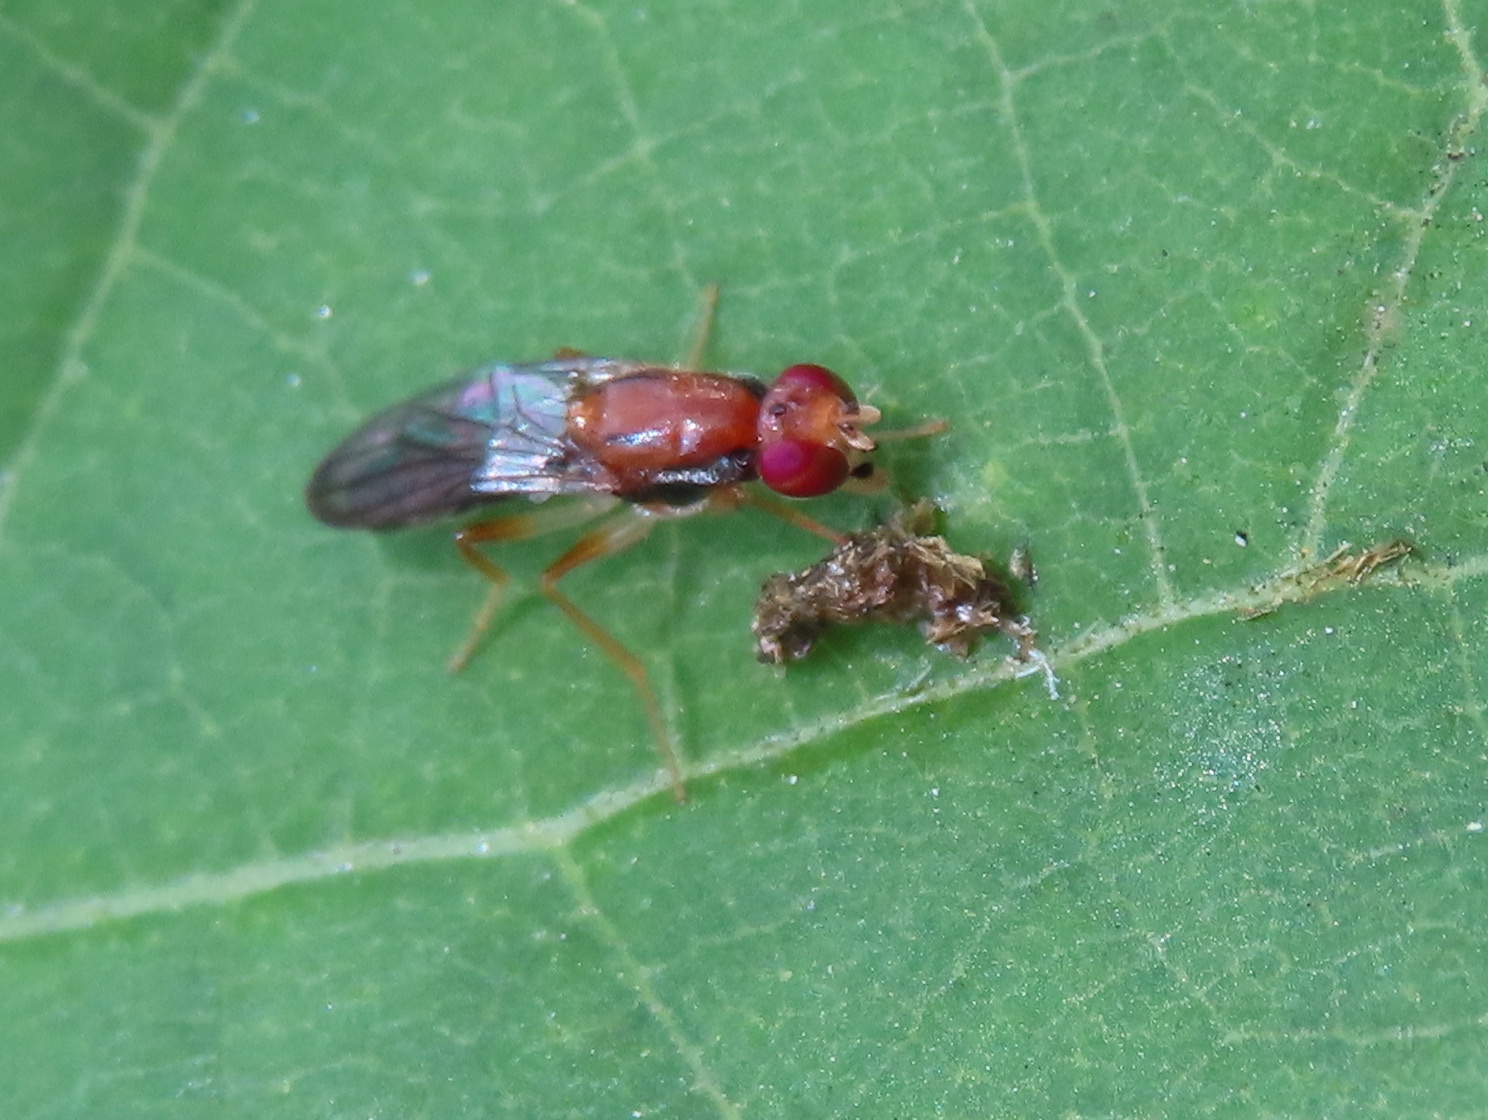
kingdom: Animalia
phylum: Arthropoda
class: Insecta
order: Diptera
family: Psilidae
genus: Chyliza
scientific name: Chyliza apicalis
